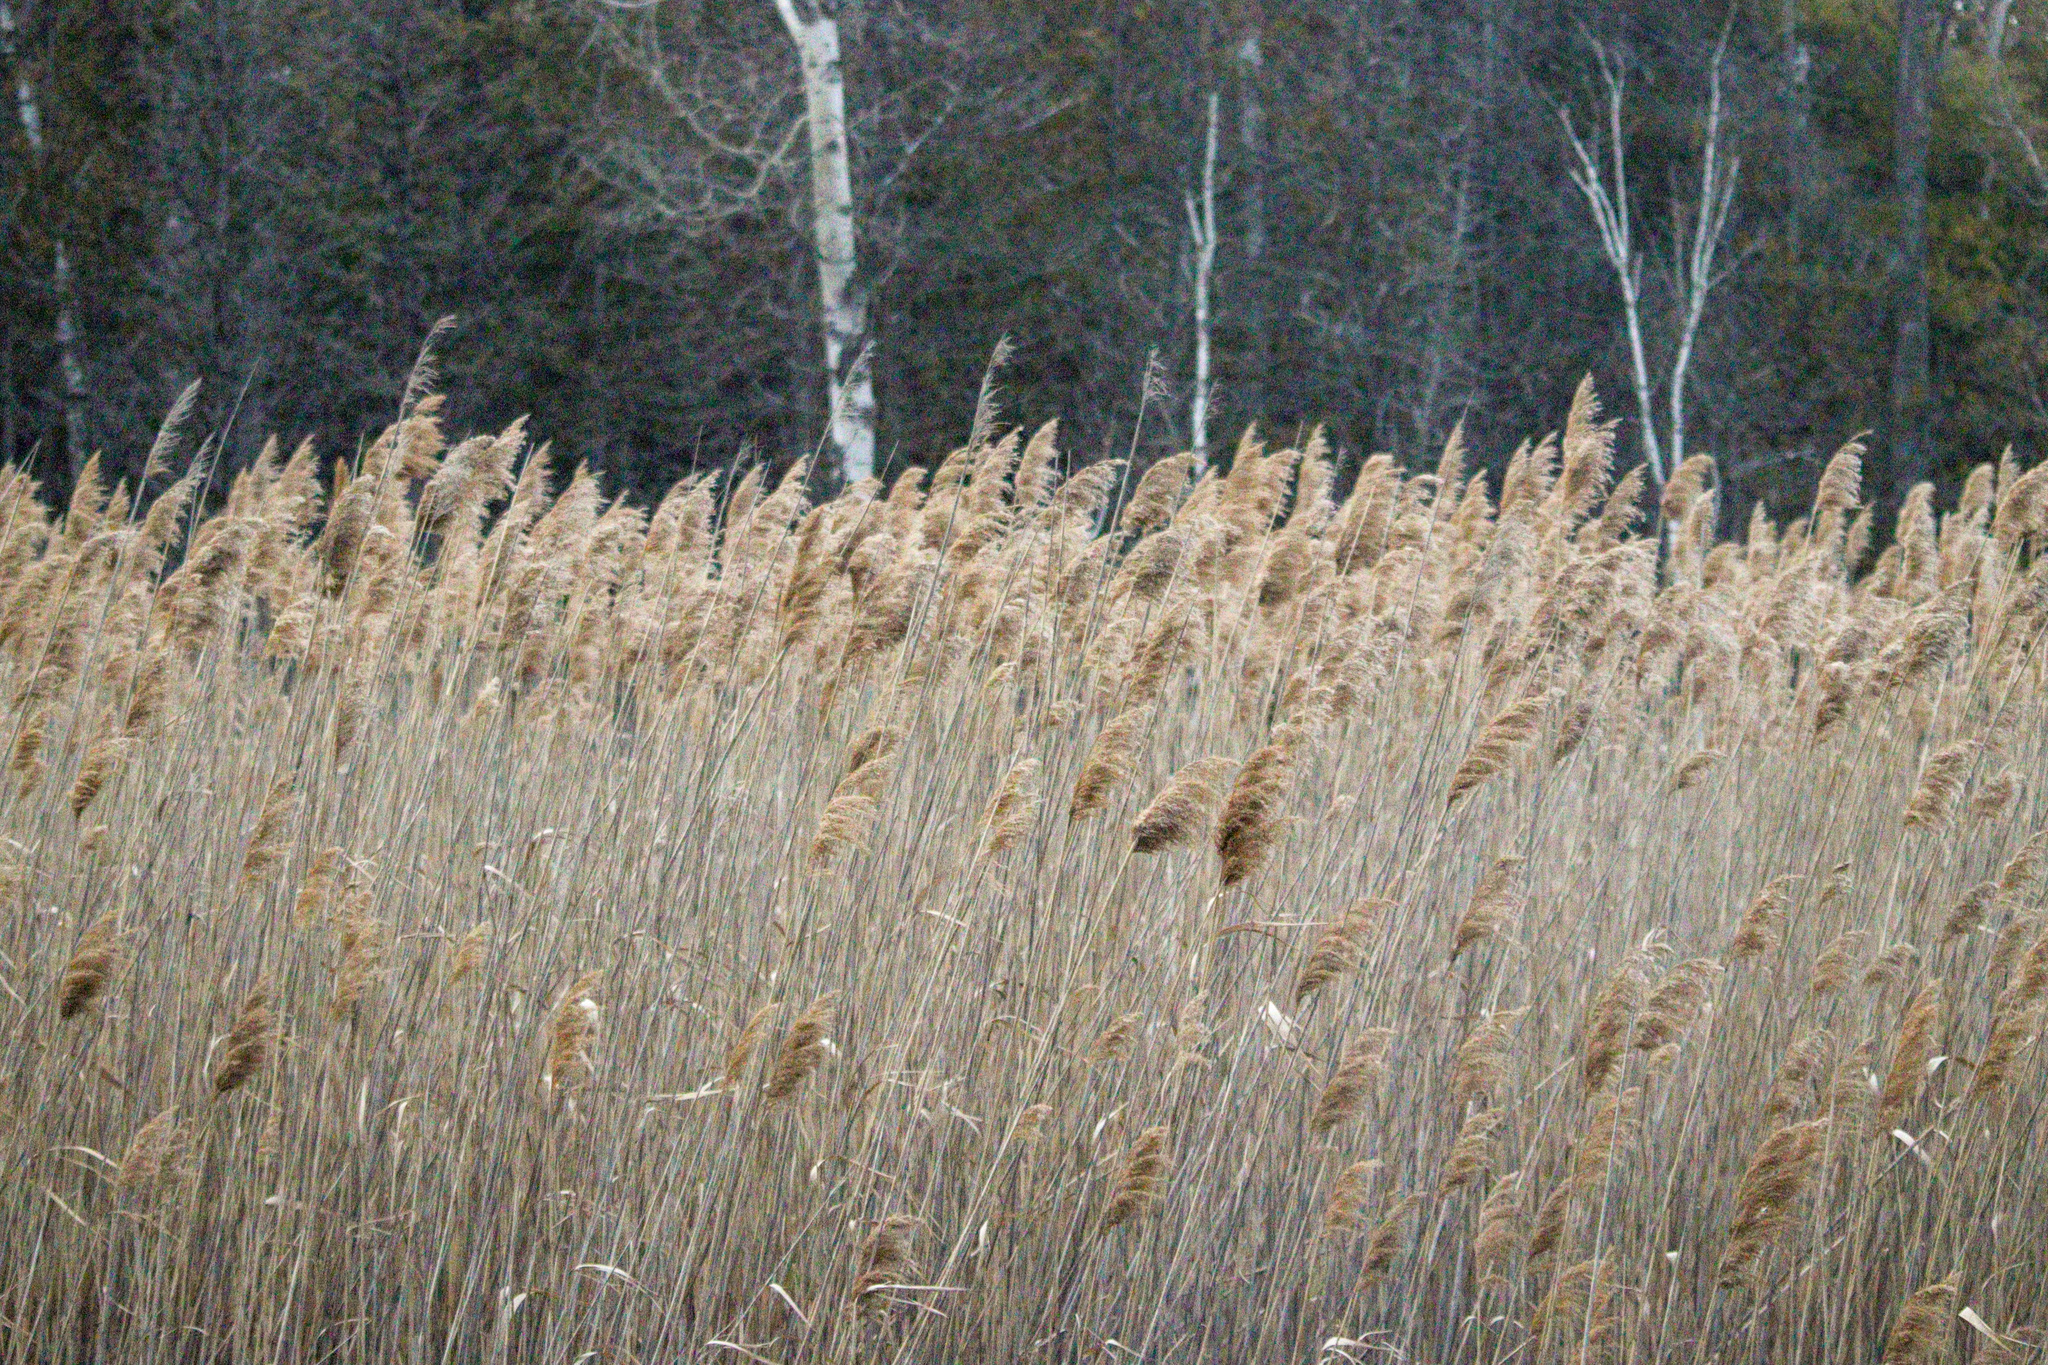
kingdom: Plantae
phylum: Tracheophyta
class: Liliopsida
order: Poales
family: Poaceae
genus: Phragmites
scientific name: Phragmites australis
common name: Common reed
